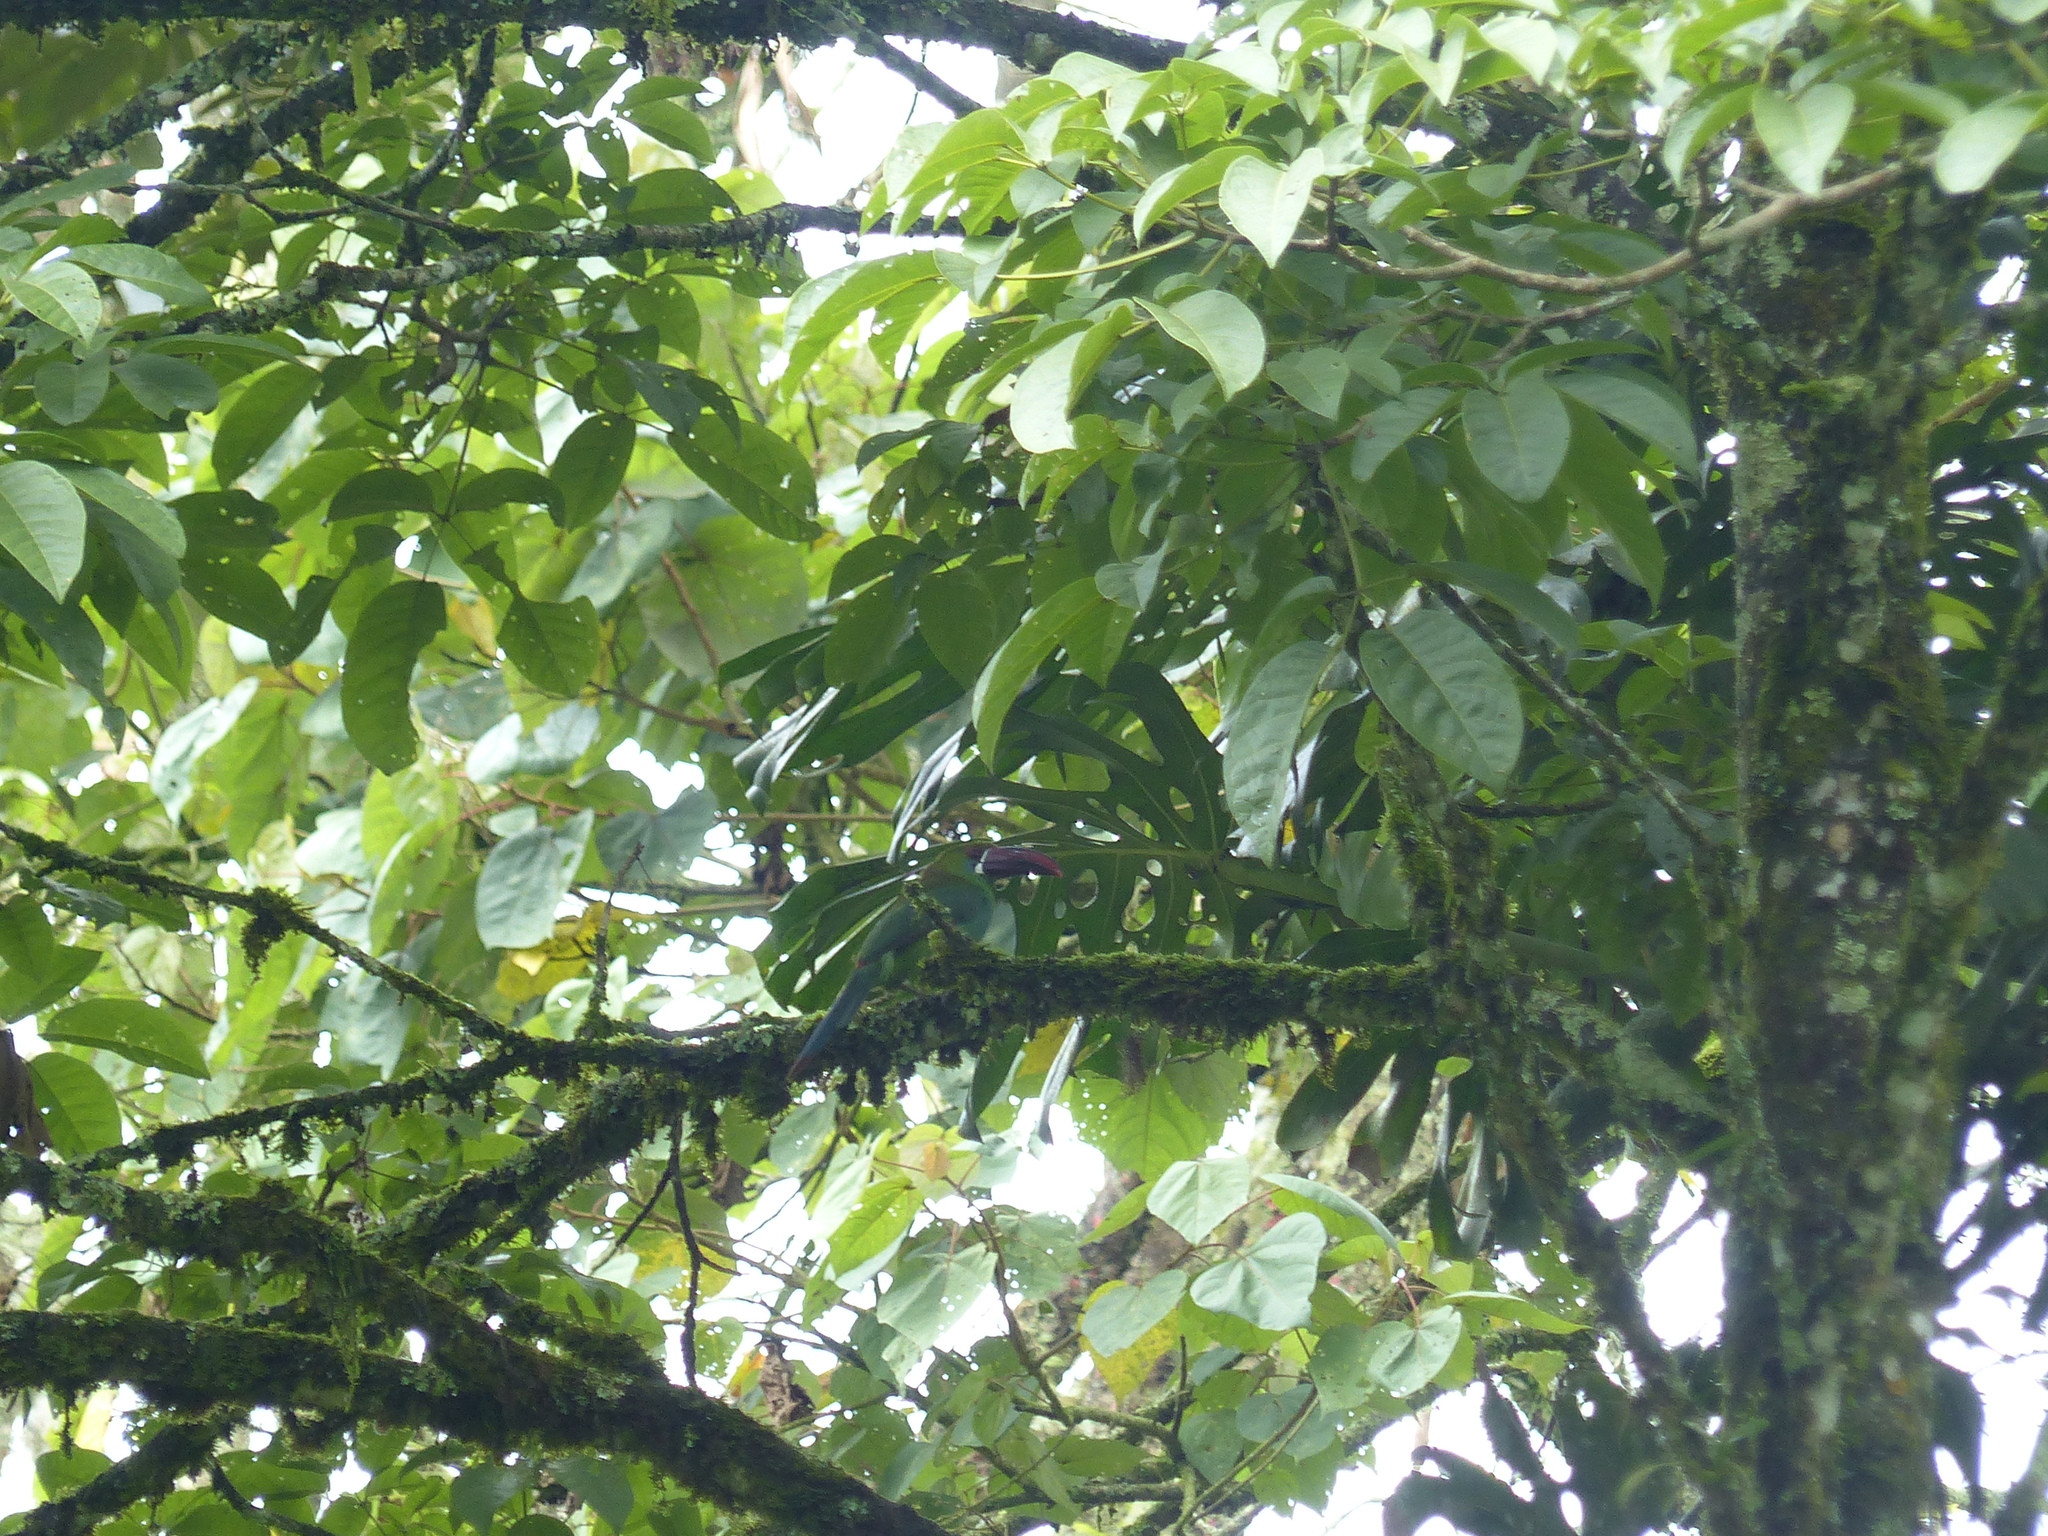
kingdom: Animalia
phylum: Chordata
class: Aves
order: Piciformes
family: Ramphastidae
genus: Aulacorhynchus
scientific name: Aulacorhynchus haematopygus
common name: Crimson-rumped toucanet
